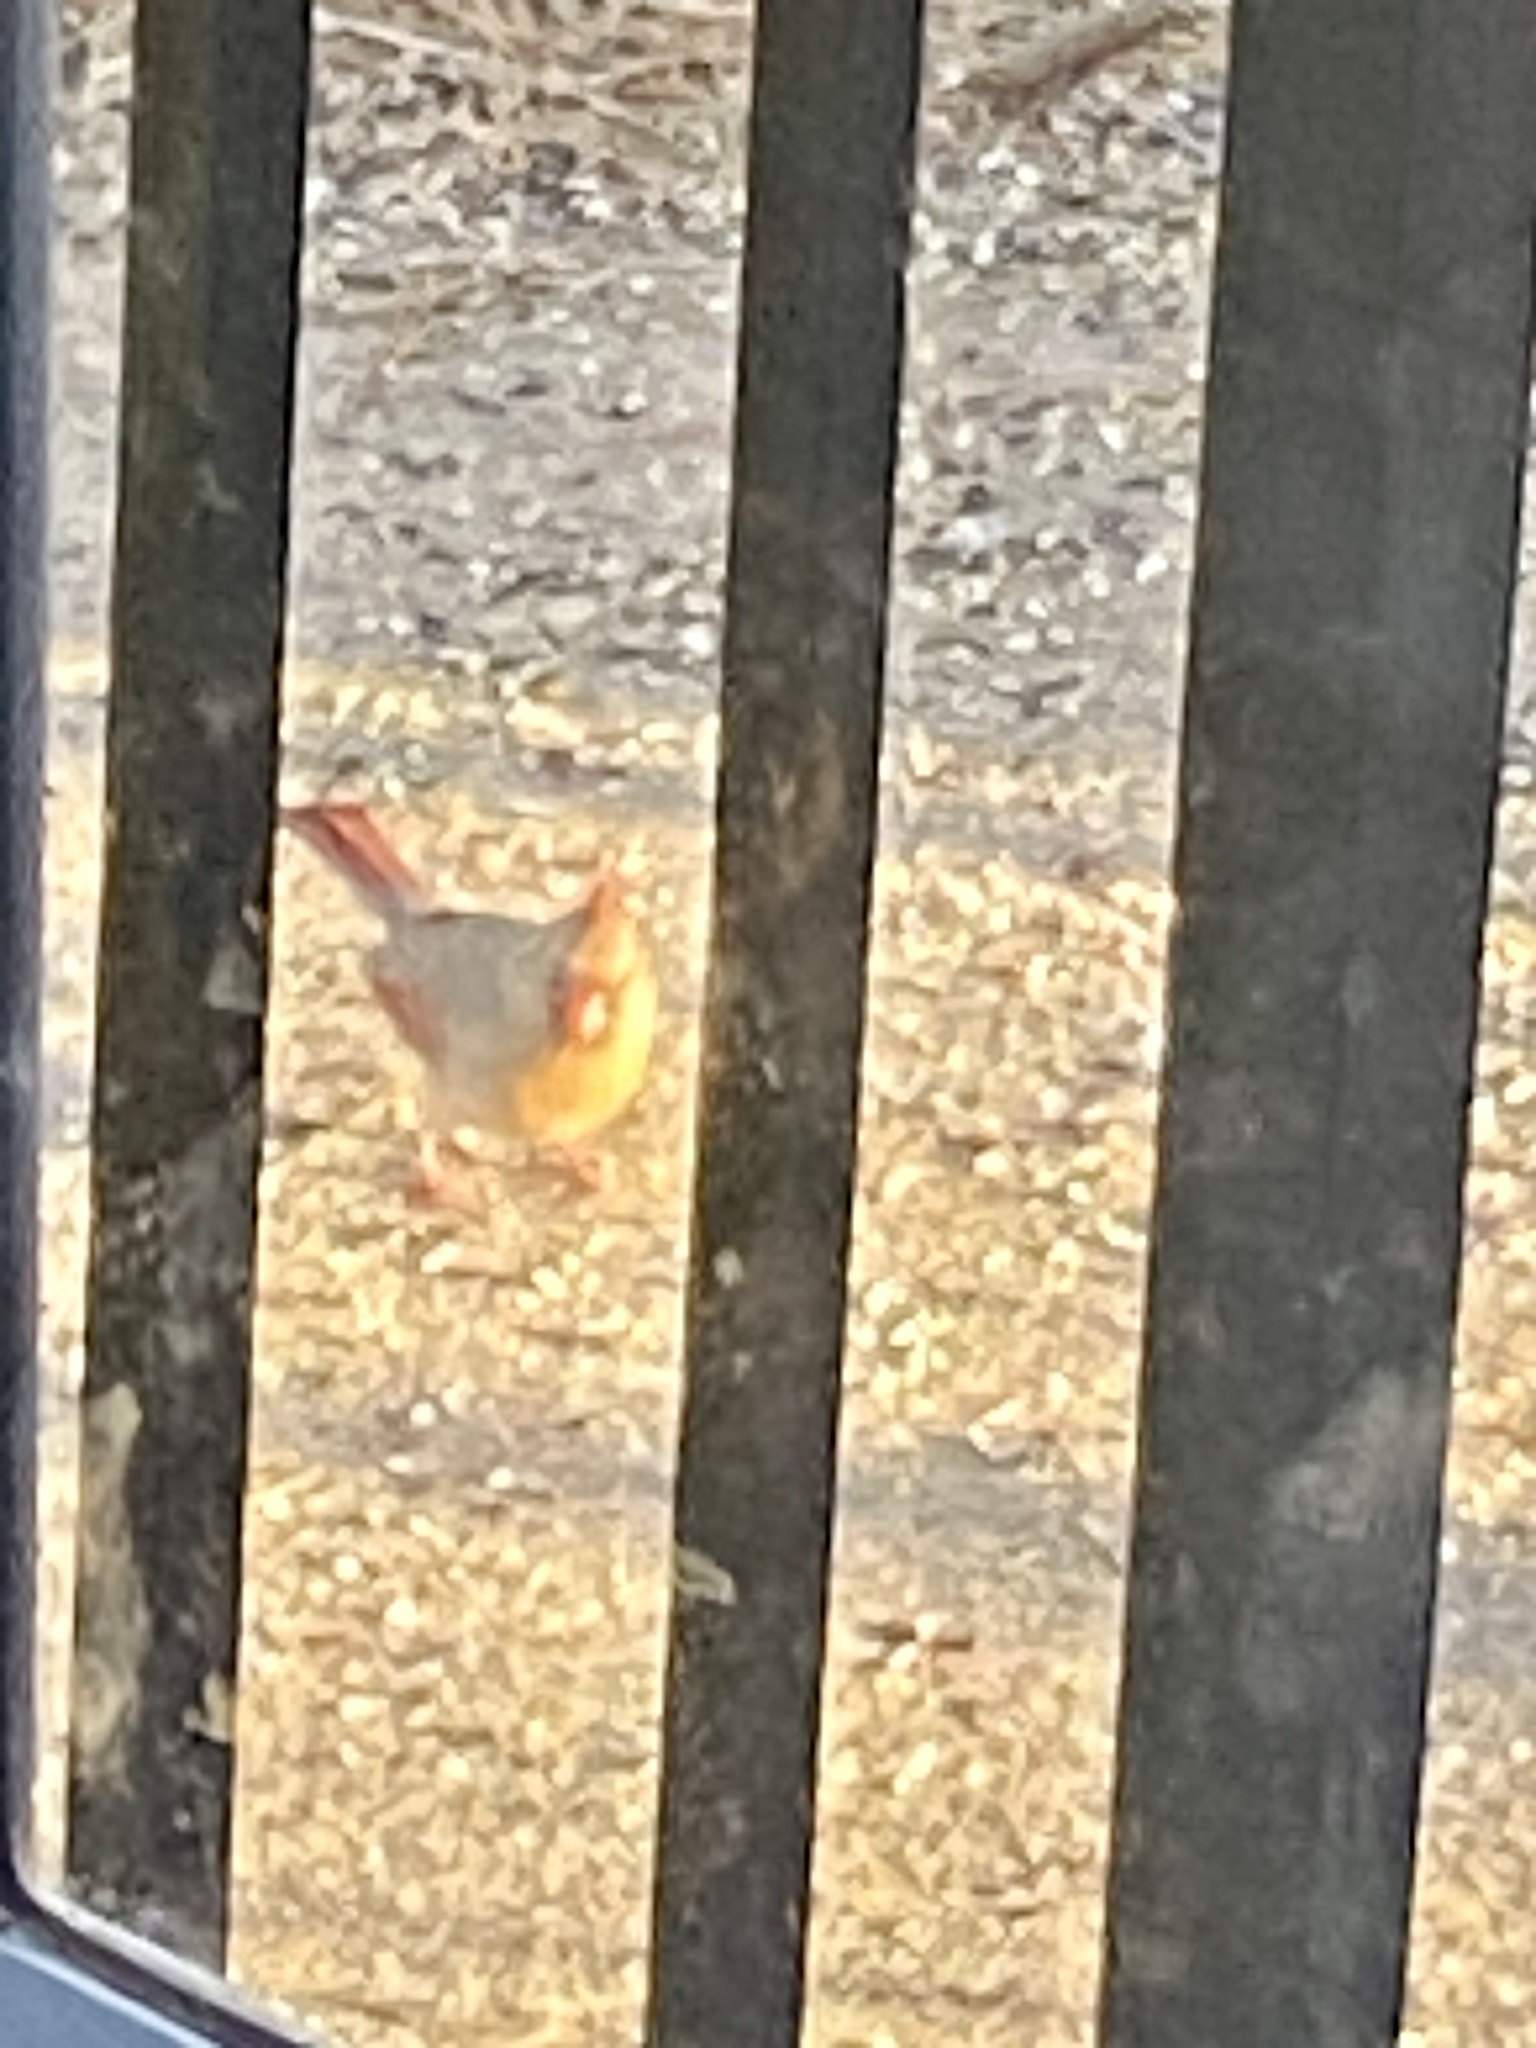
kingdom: Animalia
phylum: Chordata
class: Aves
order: Passeriformes
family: Cardinalidae
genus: Cardinalis
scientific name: Cardinalis cardinalis
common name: Northern cardinal
